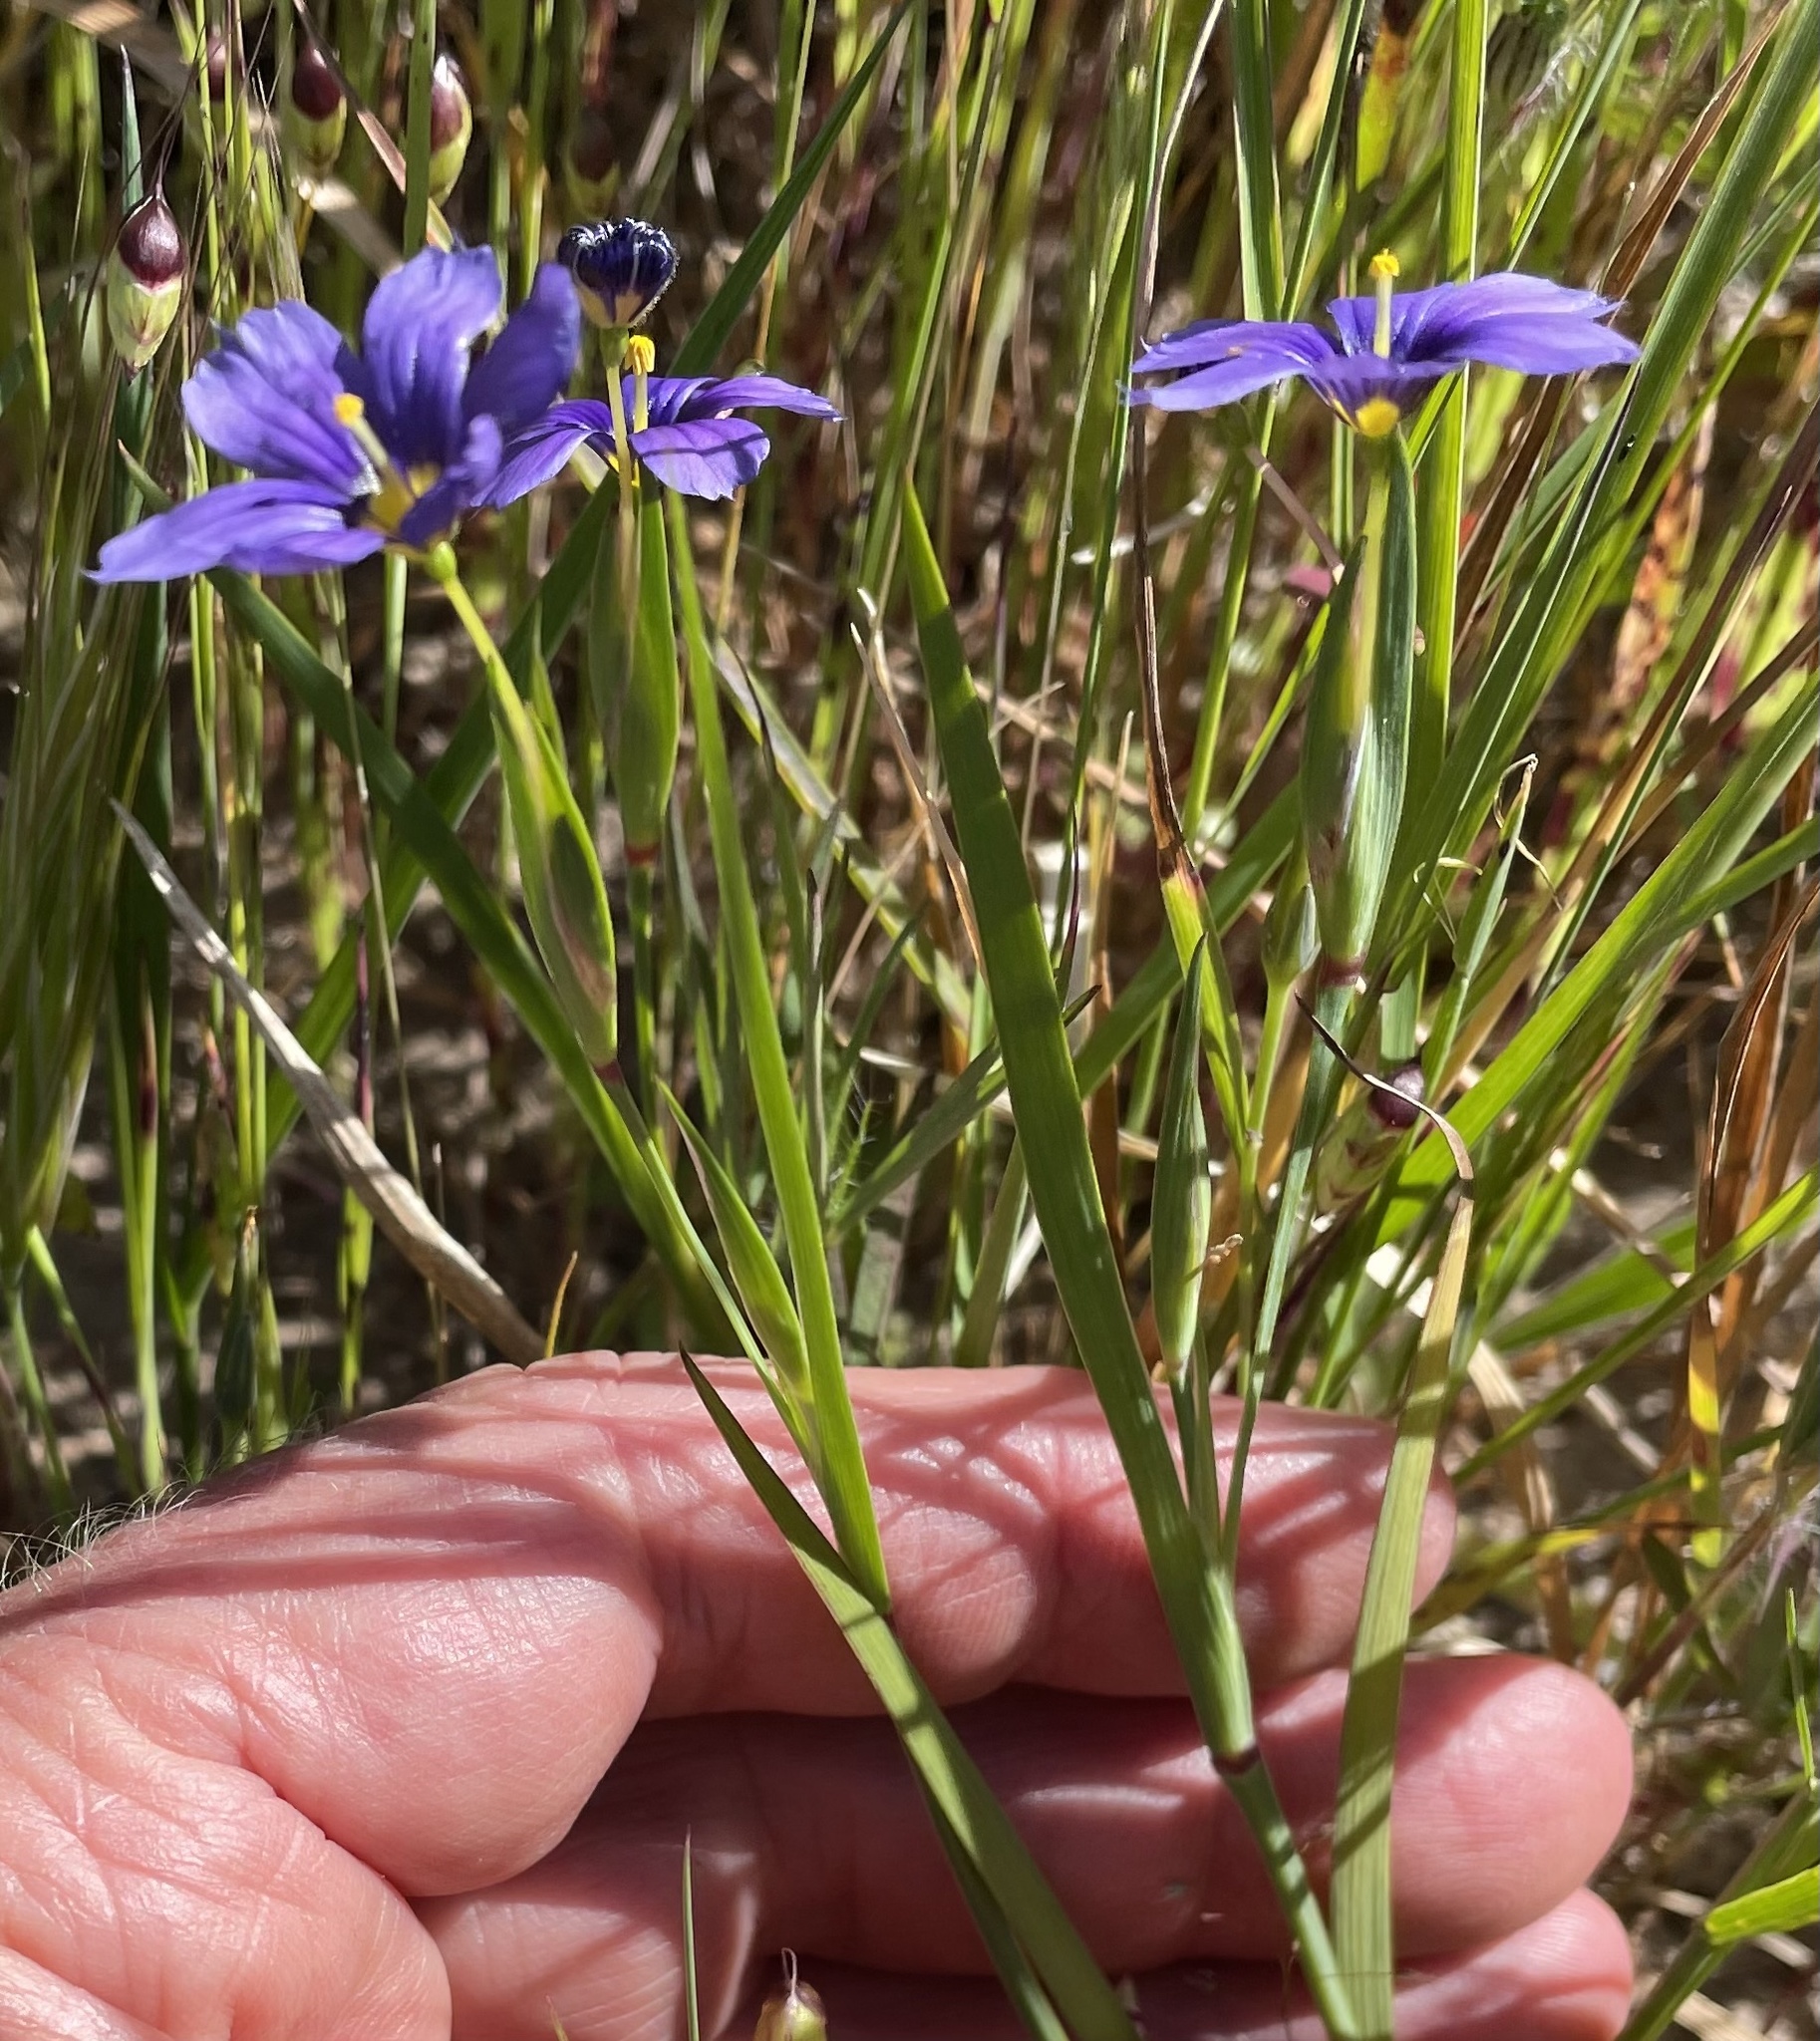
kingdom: Plantae
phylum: Tracheophyta
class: Liliopsida
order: Asparagales
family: Iridaceae
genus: Sisyrinchium
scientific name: Sisyrinchium bellum
